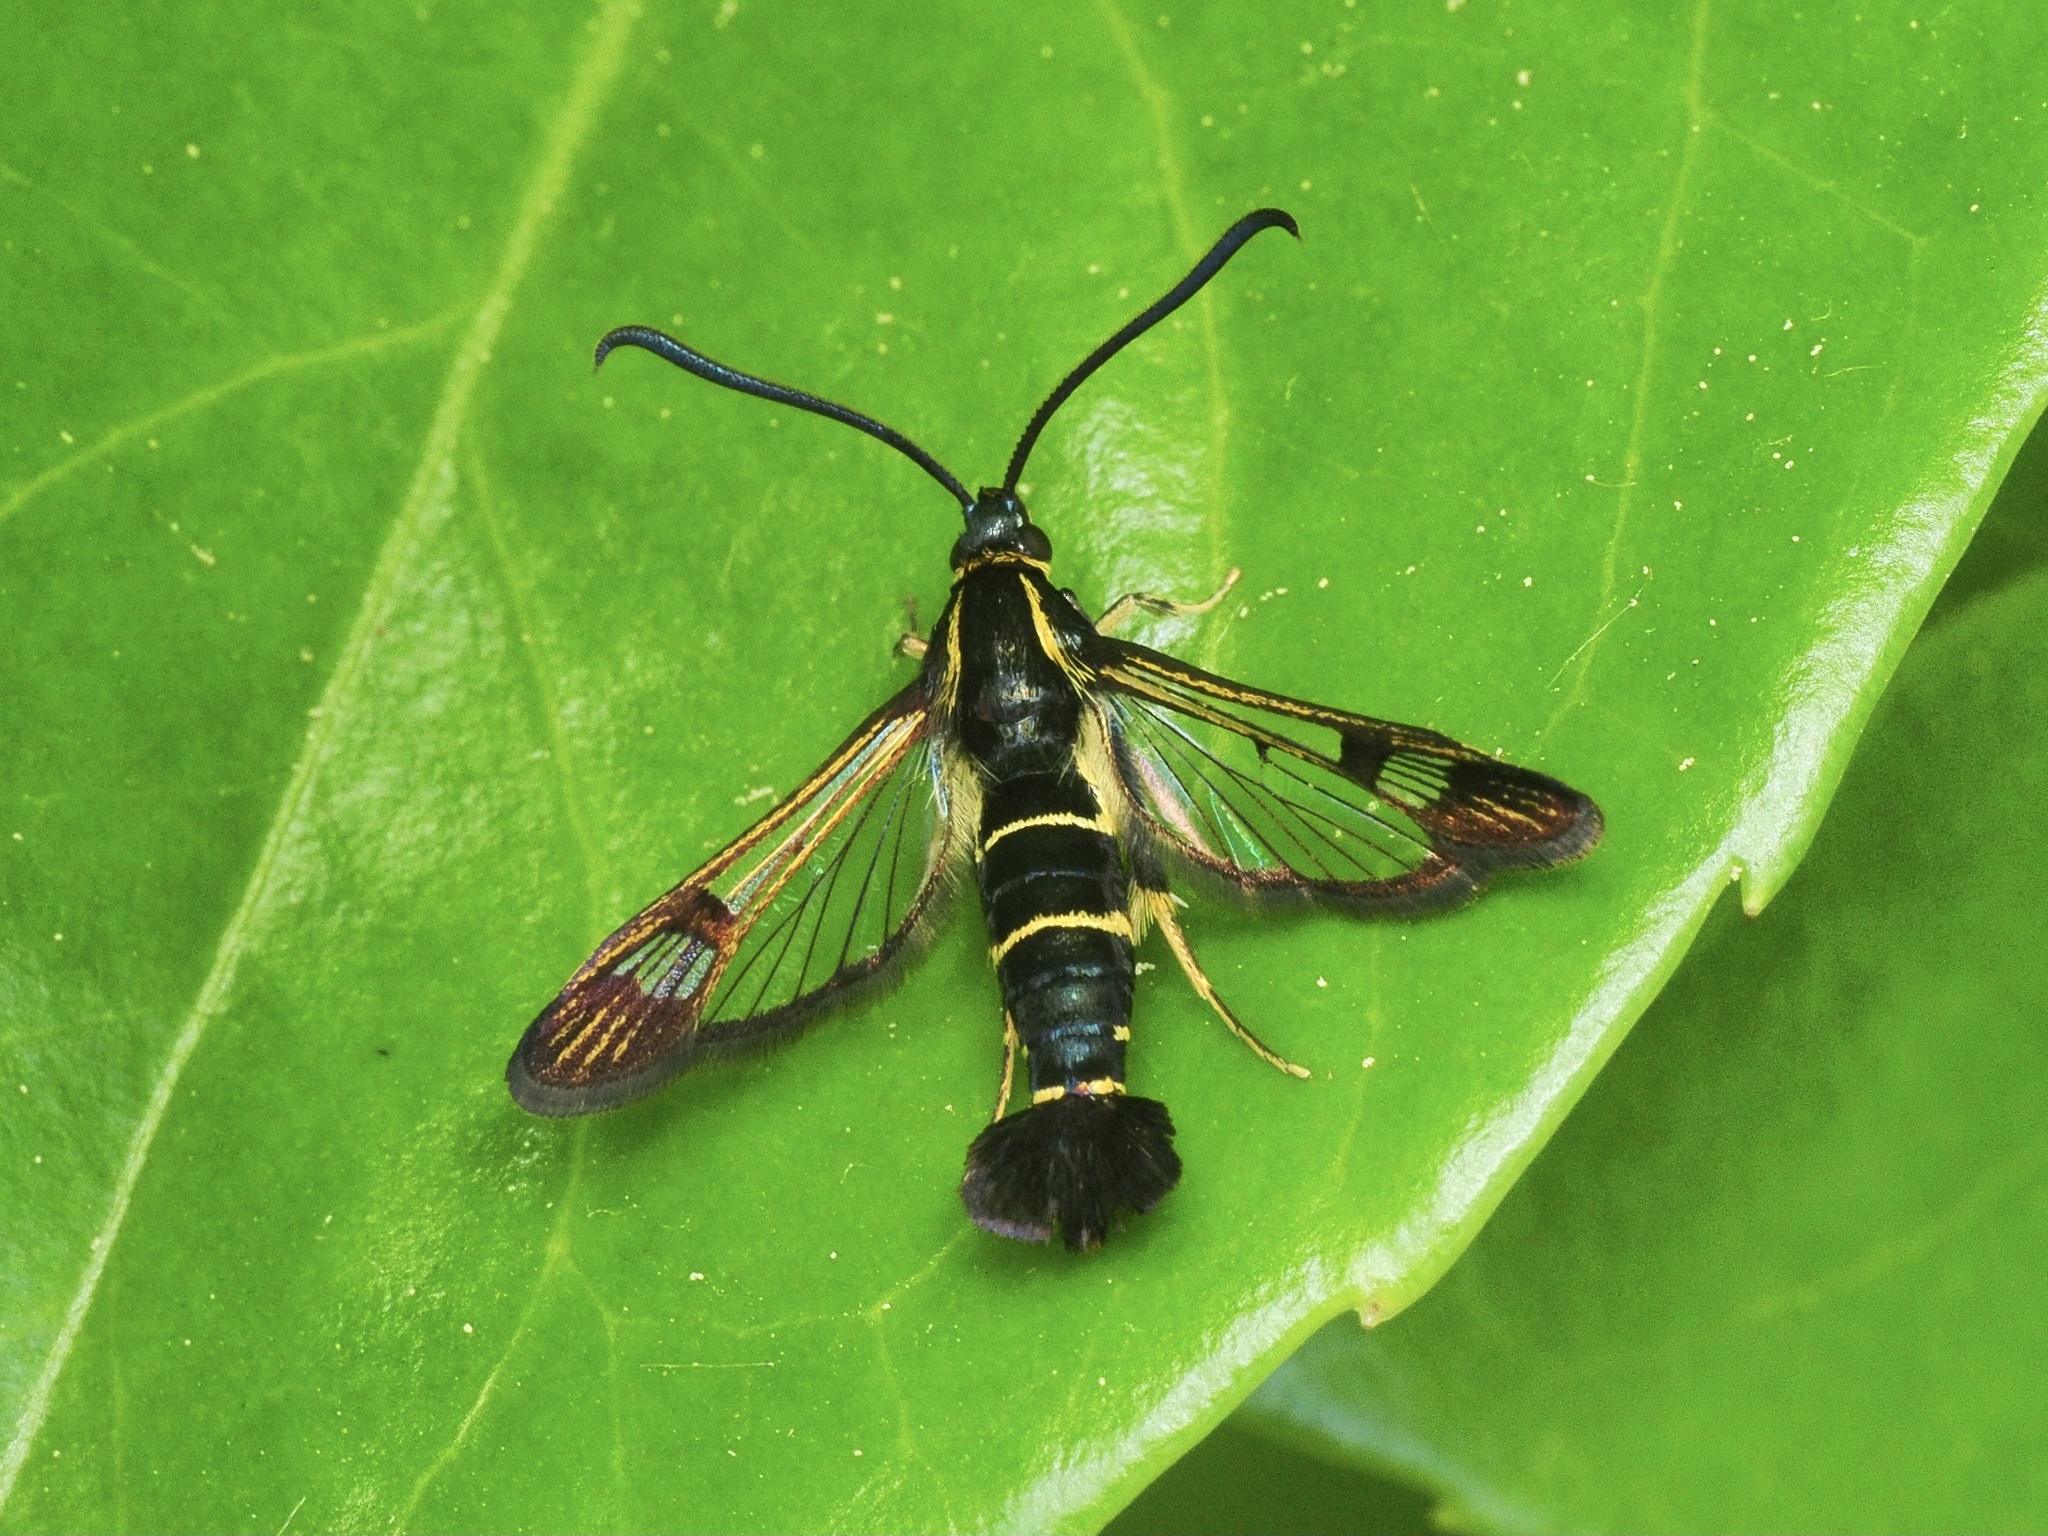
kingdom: Animalia
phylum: Arthropoda
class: Insecta
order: Lepidoptera
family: Sesiidae
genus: Synanthedon
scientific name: Synanthedon tipuliformis
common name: Currant clearwing
